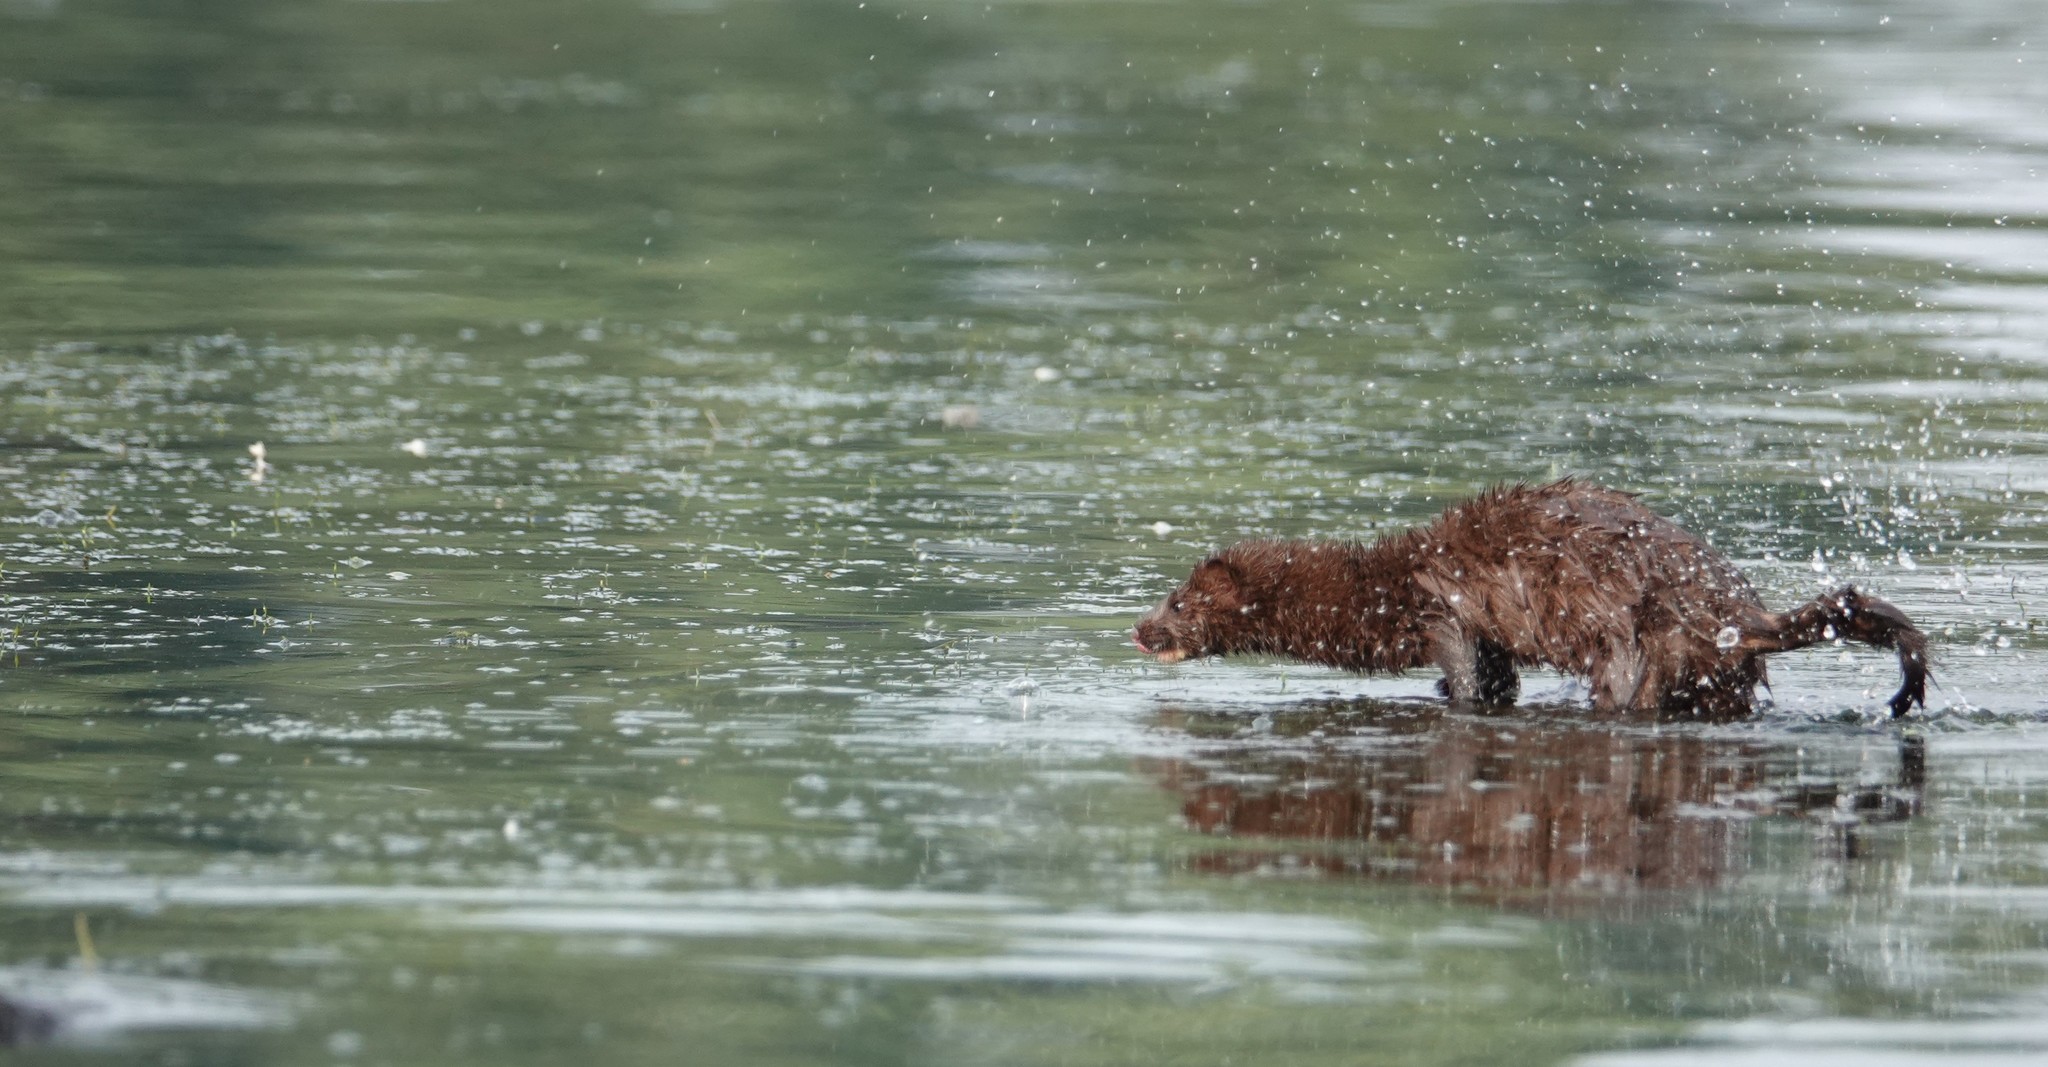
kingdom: Animalia
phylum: Chordata
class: Mammalia
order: Carnivora
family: Mustelidae
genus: Mustela
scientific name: Mustela
